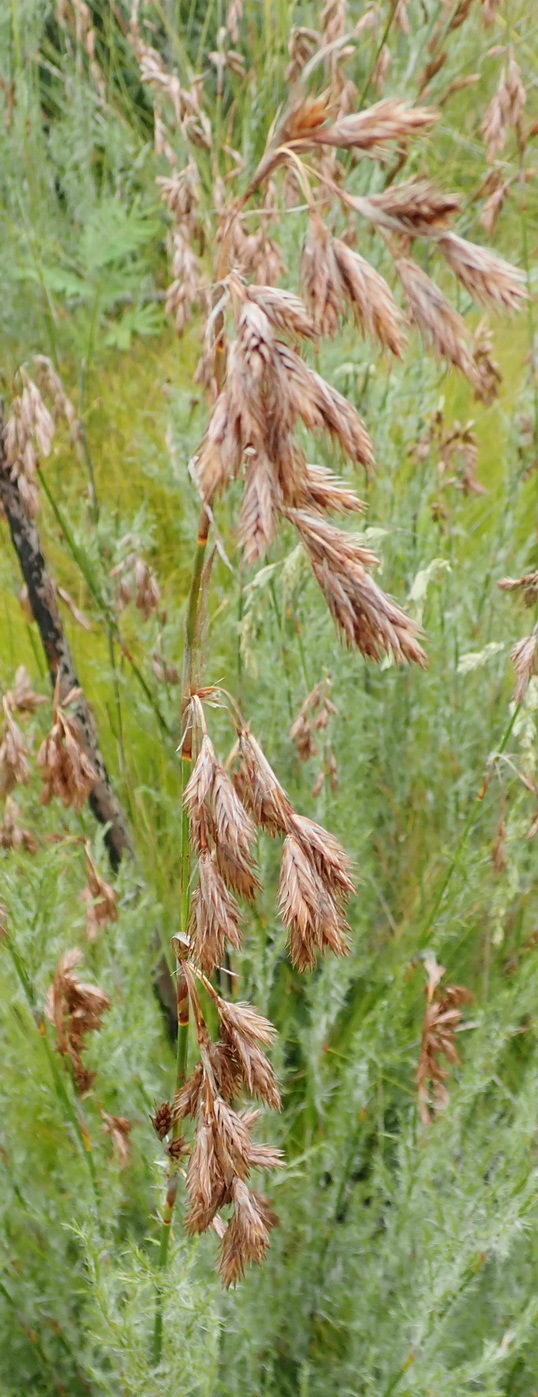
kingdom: Plantae
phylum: Tracheophyta
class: Liliopsida
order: Poales
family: Restionaceae
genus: Thamnochortus
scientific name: Thamnochortus glaber
